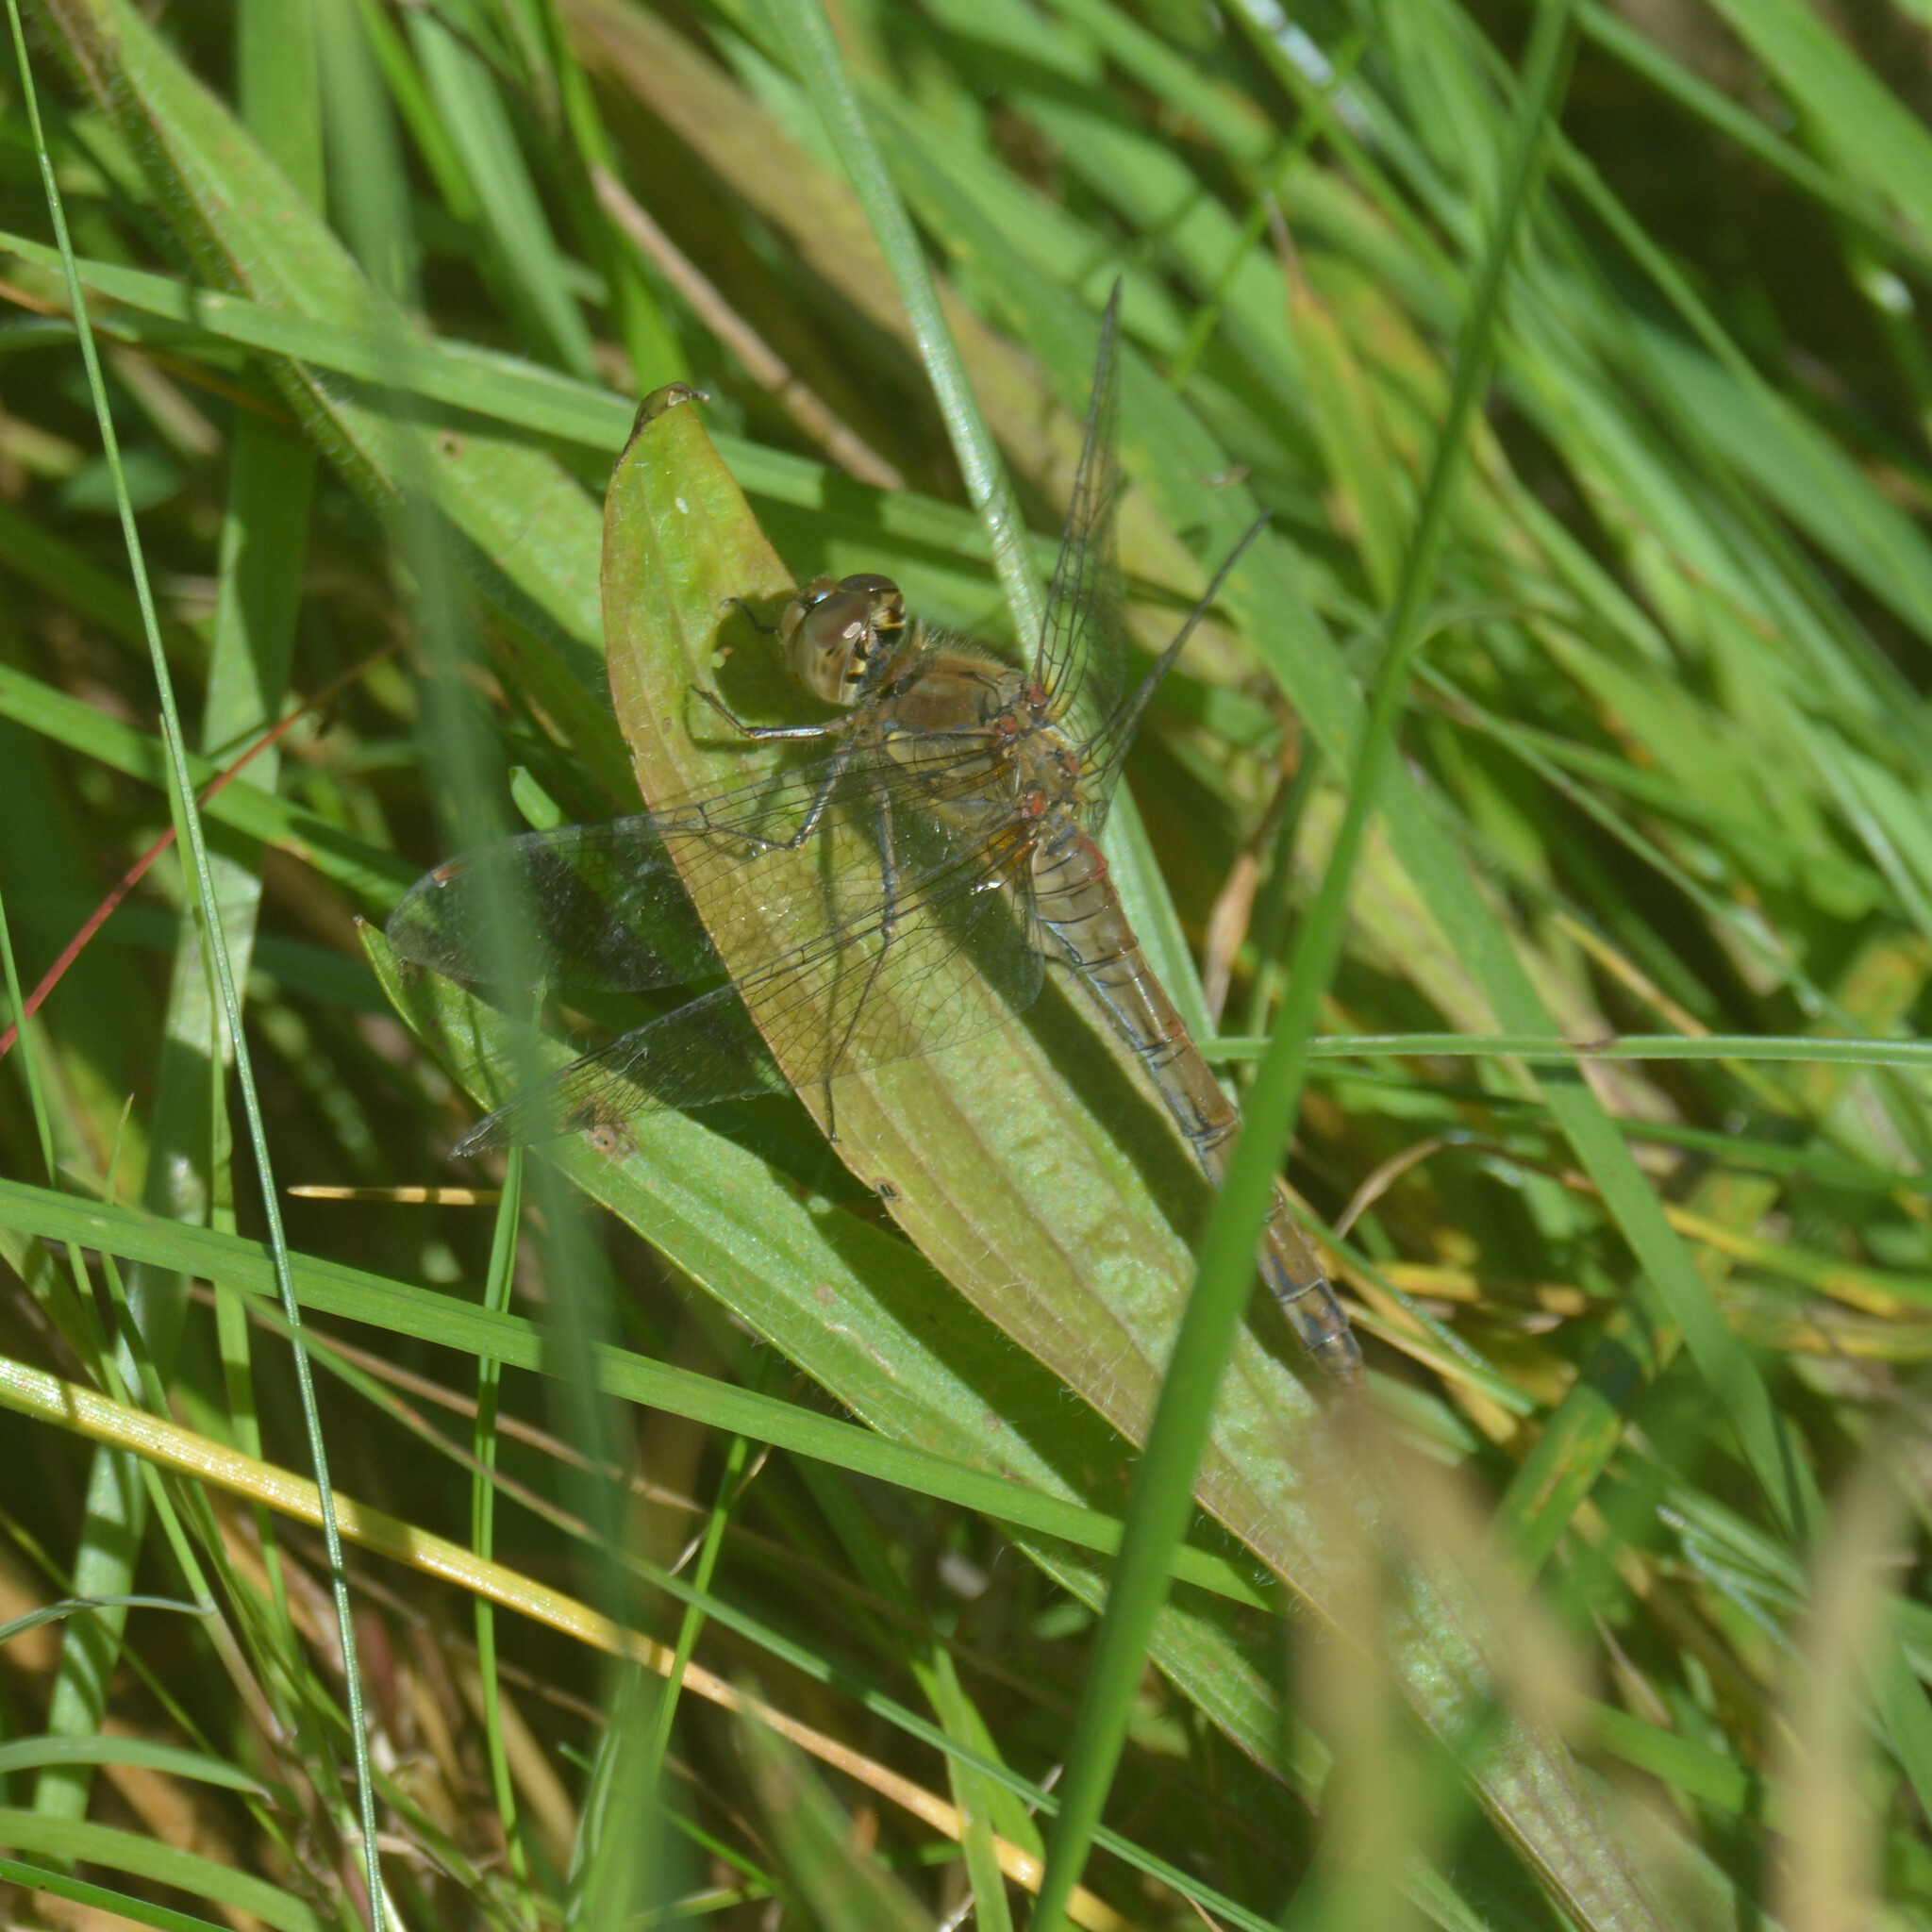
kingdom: Animalia
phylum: Arthropoda
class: Insecta
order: Odonata
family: Libellulidae
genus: Sympetrum
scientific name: Sympetrum striolatum
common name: Common darter
